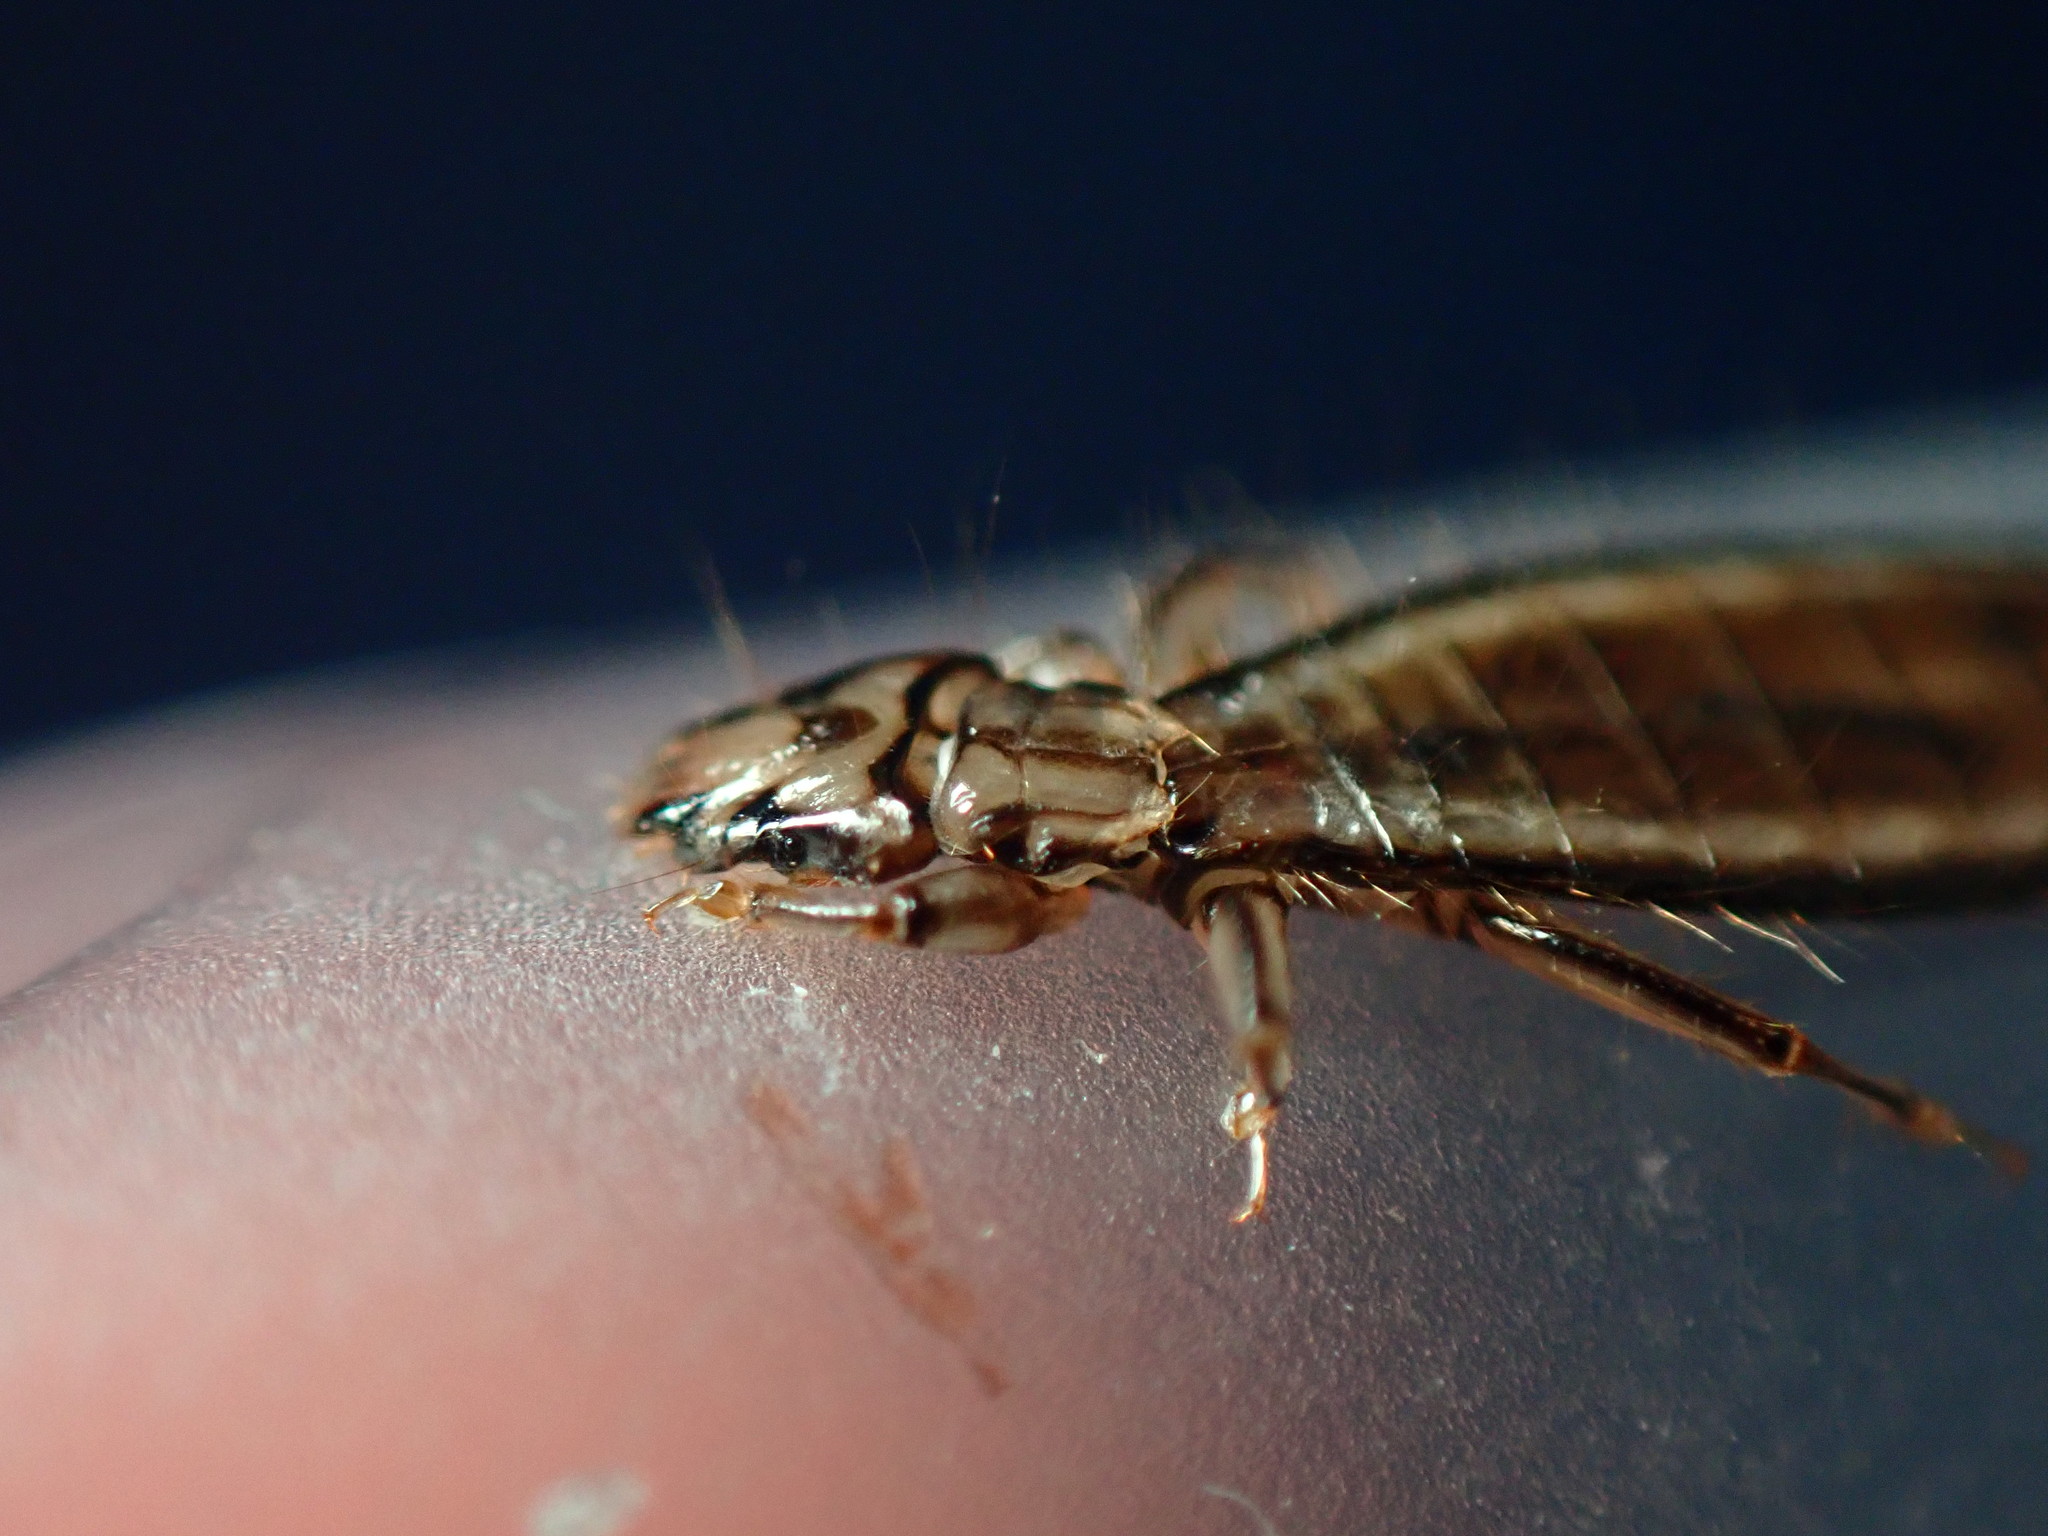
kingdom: Animalia
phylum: Arthropoda
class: Insecta
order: Psocodea
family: Laemobothriidae
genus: Laemobothrion
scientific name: Laemobothrion maximum
